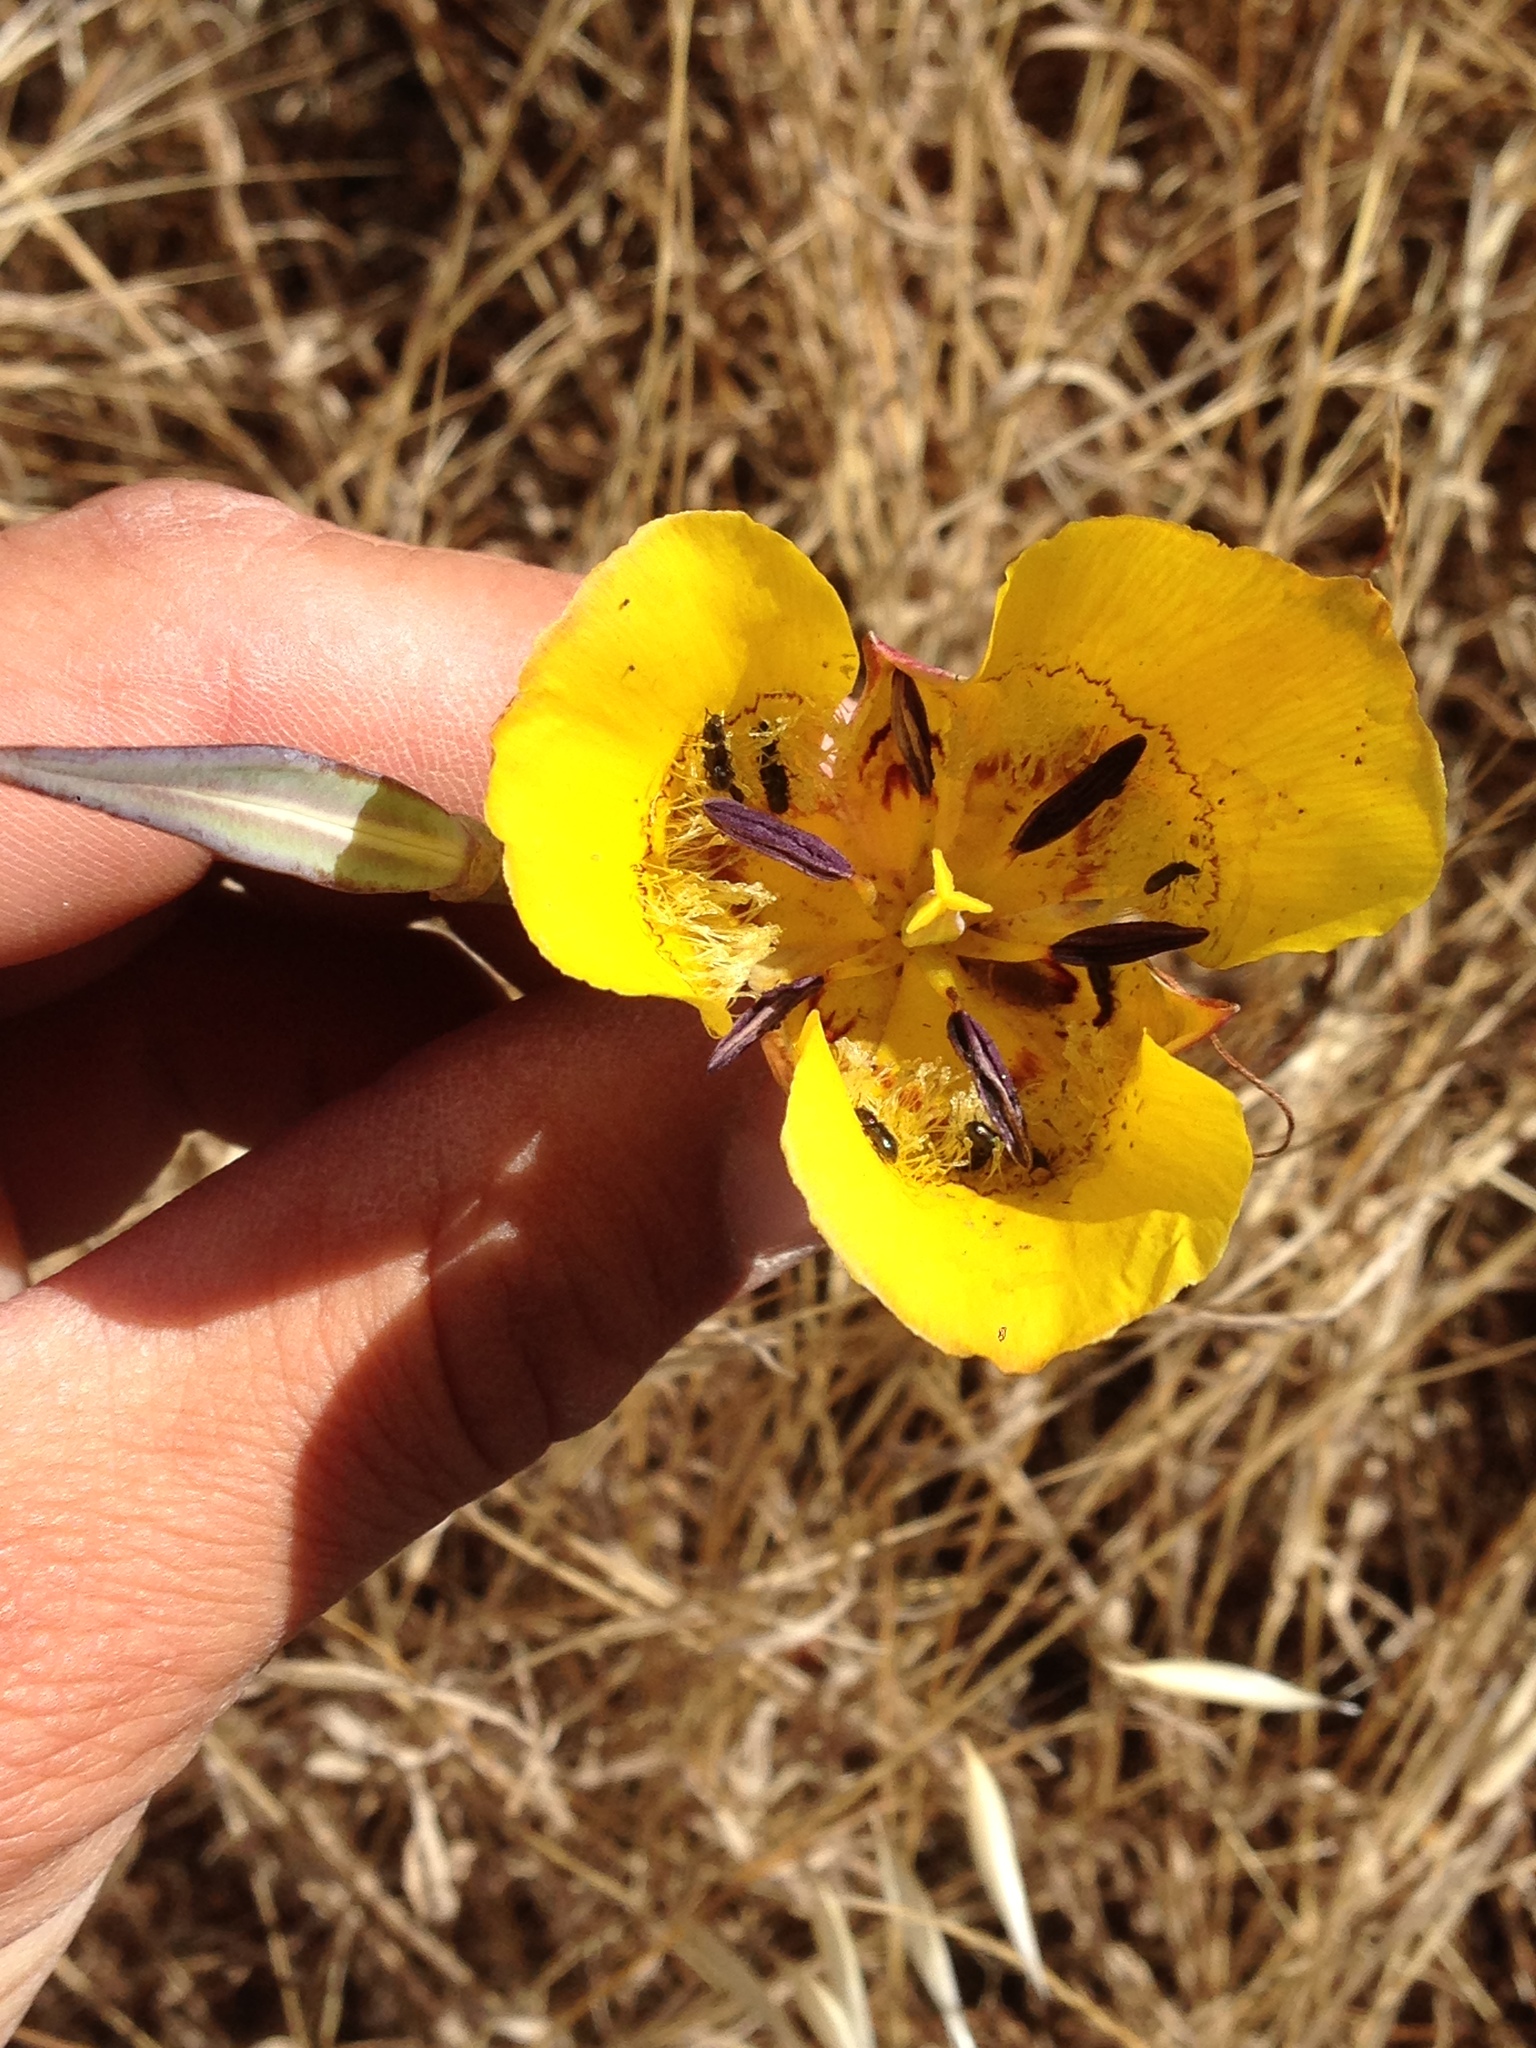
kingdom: Plantae
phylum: Tracheophyta
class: Liliopsida
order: Liliales
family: Liliaceae
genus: Calochortus
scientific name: Calochortus clavatus
